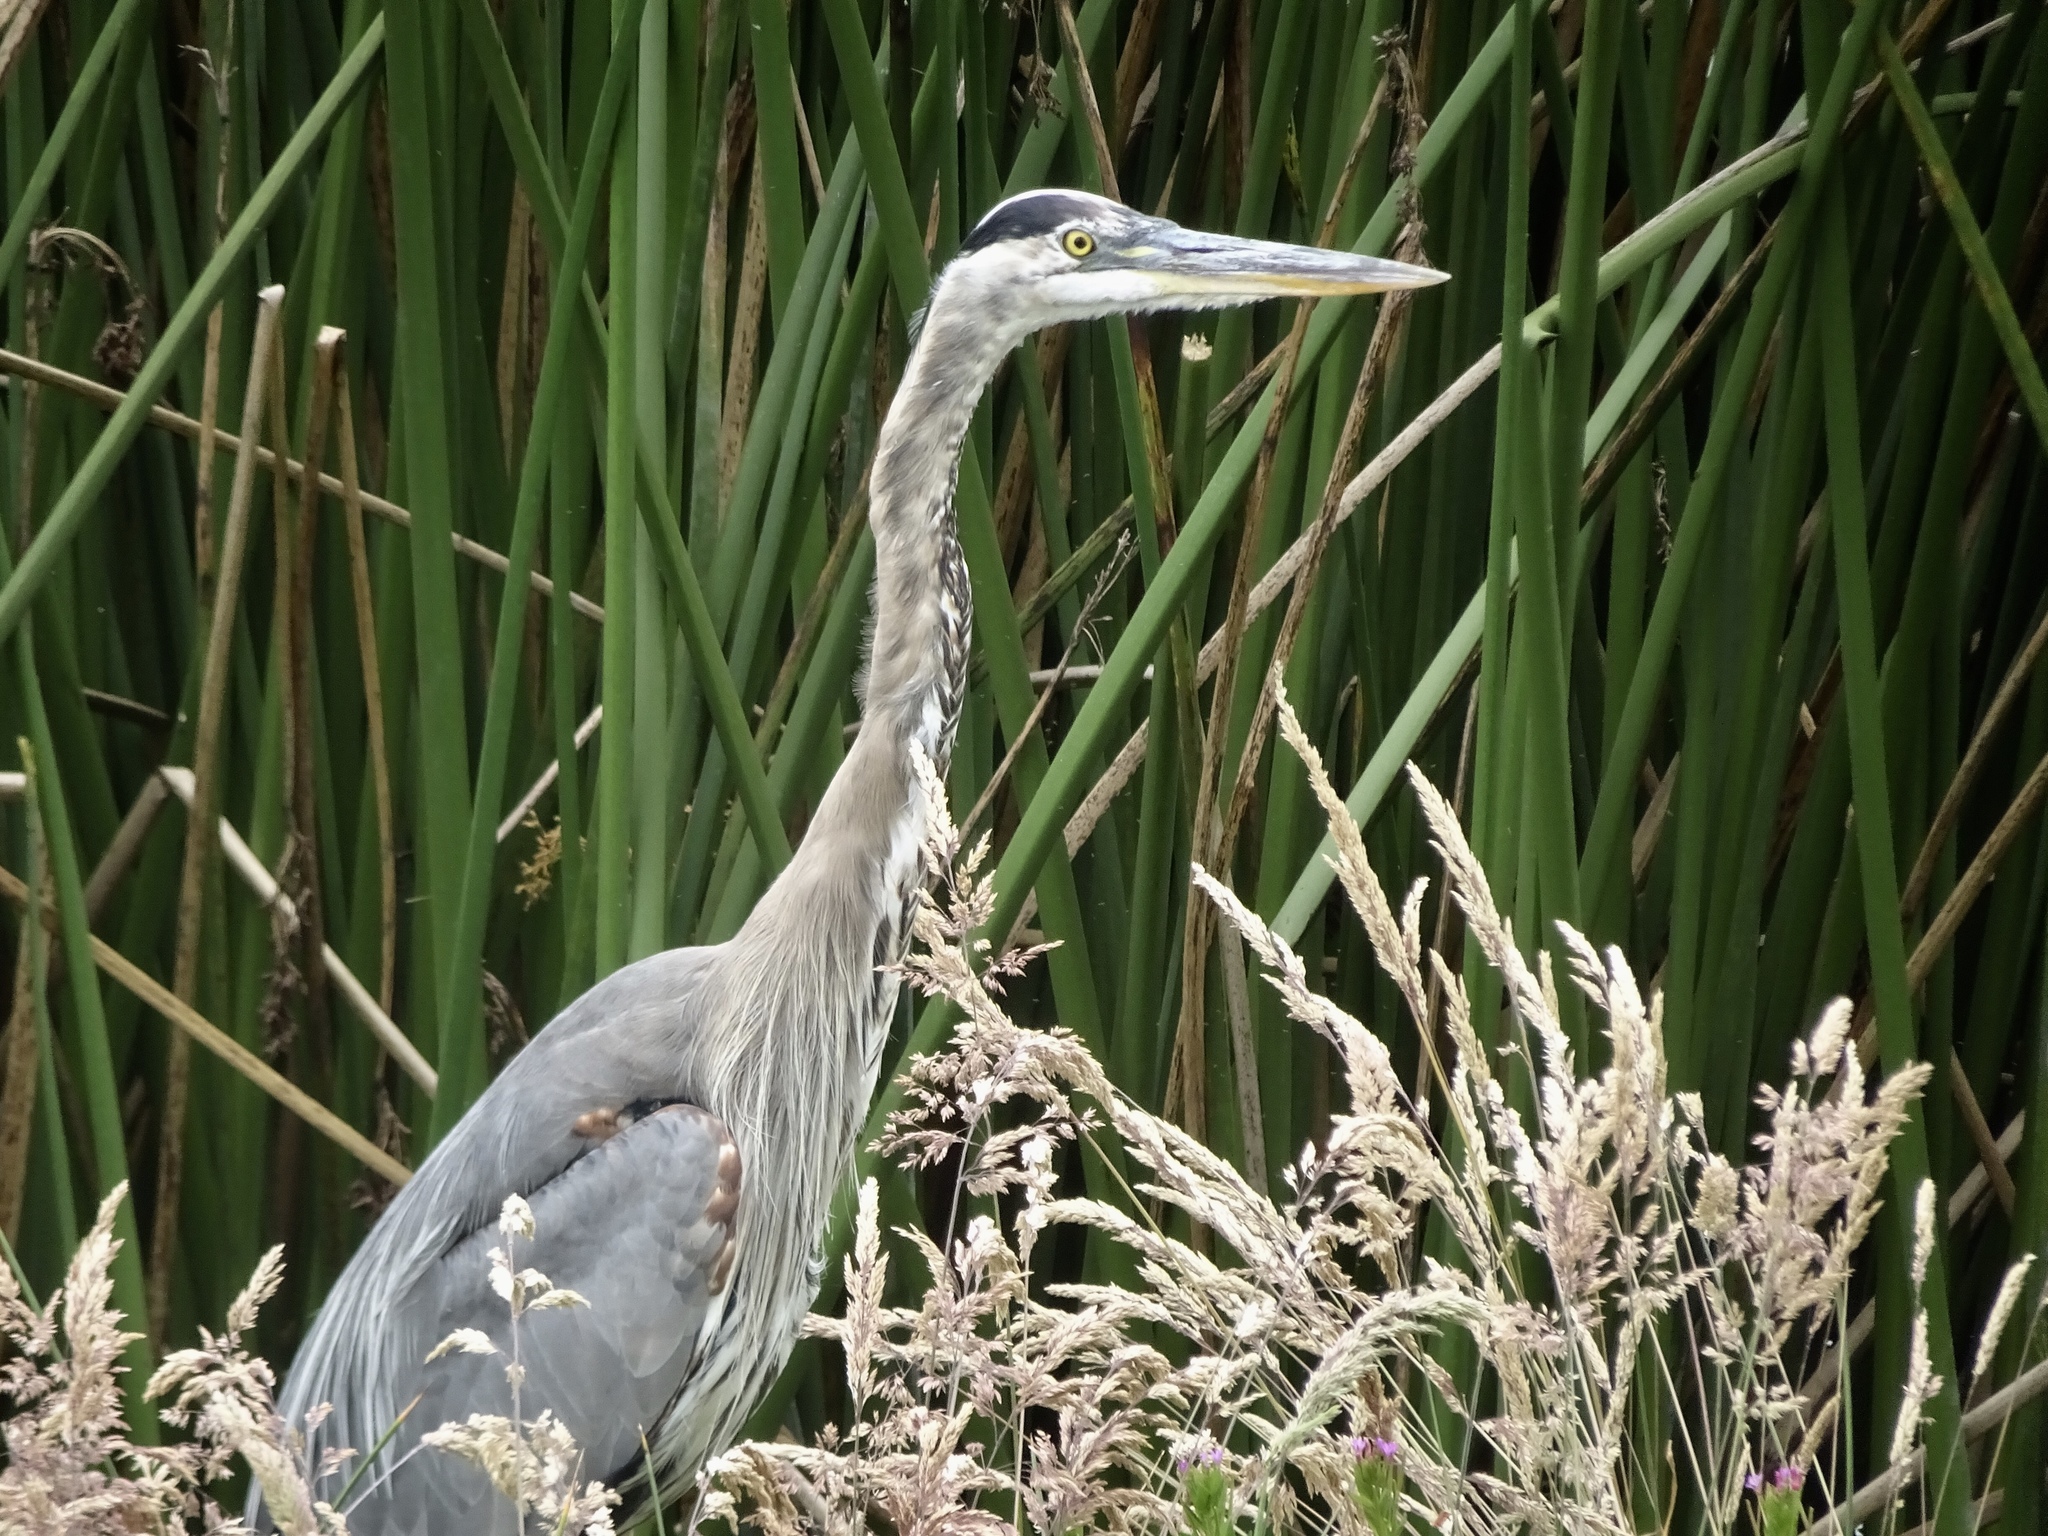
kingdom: Animalia
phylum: Chordata
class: Aves
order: Pelecaniformes
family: Ardeidae
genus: Ardea
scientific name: Ardea herodias
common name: Great blue heron
